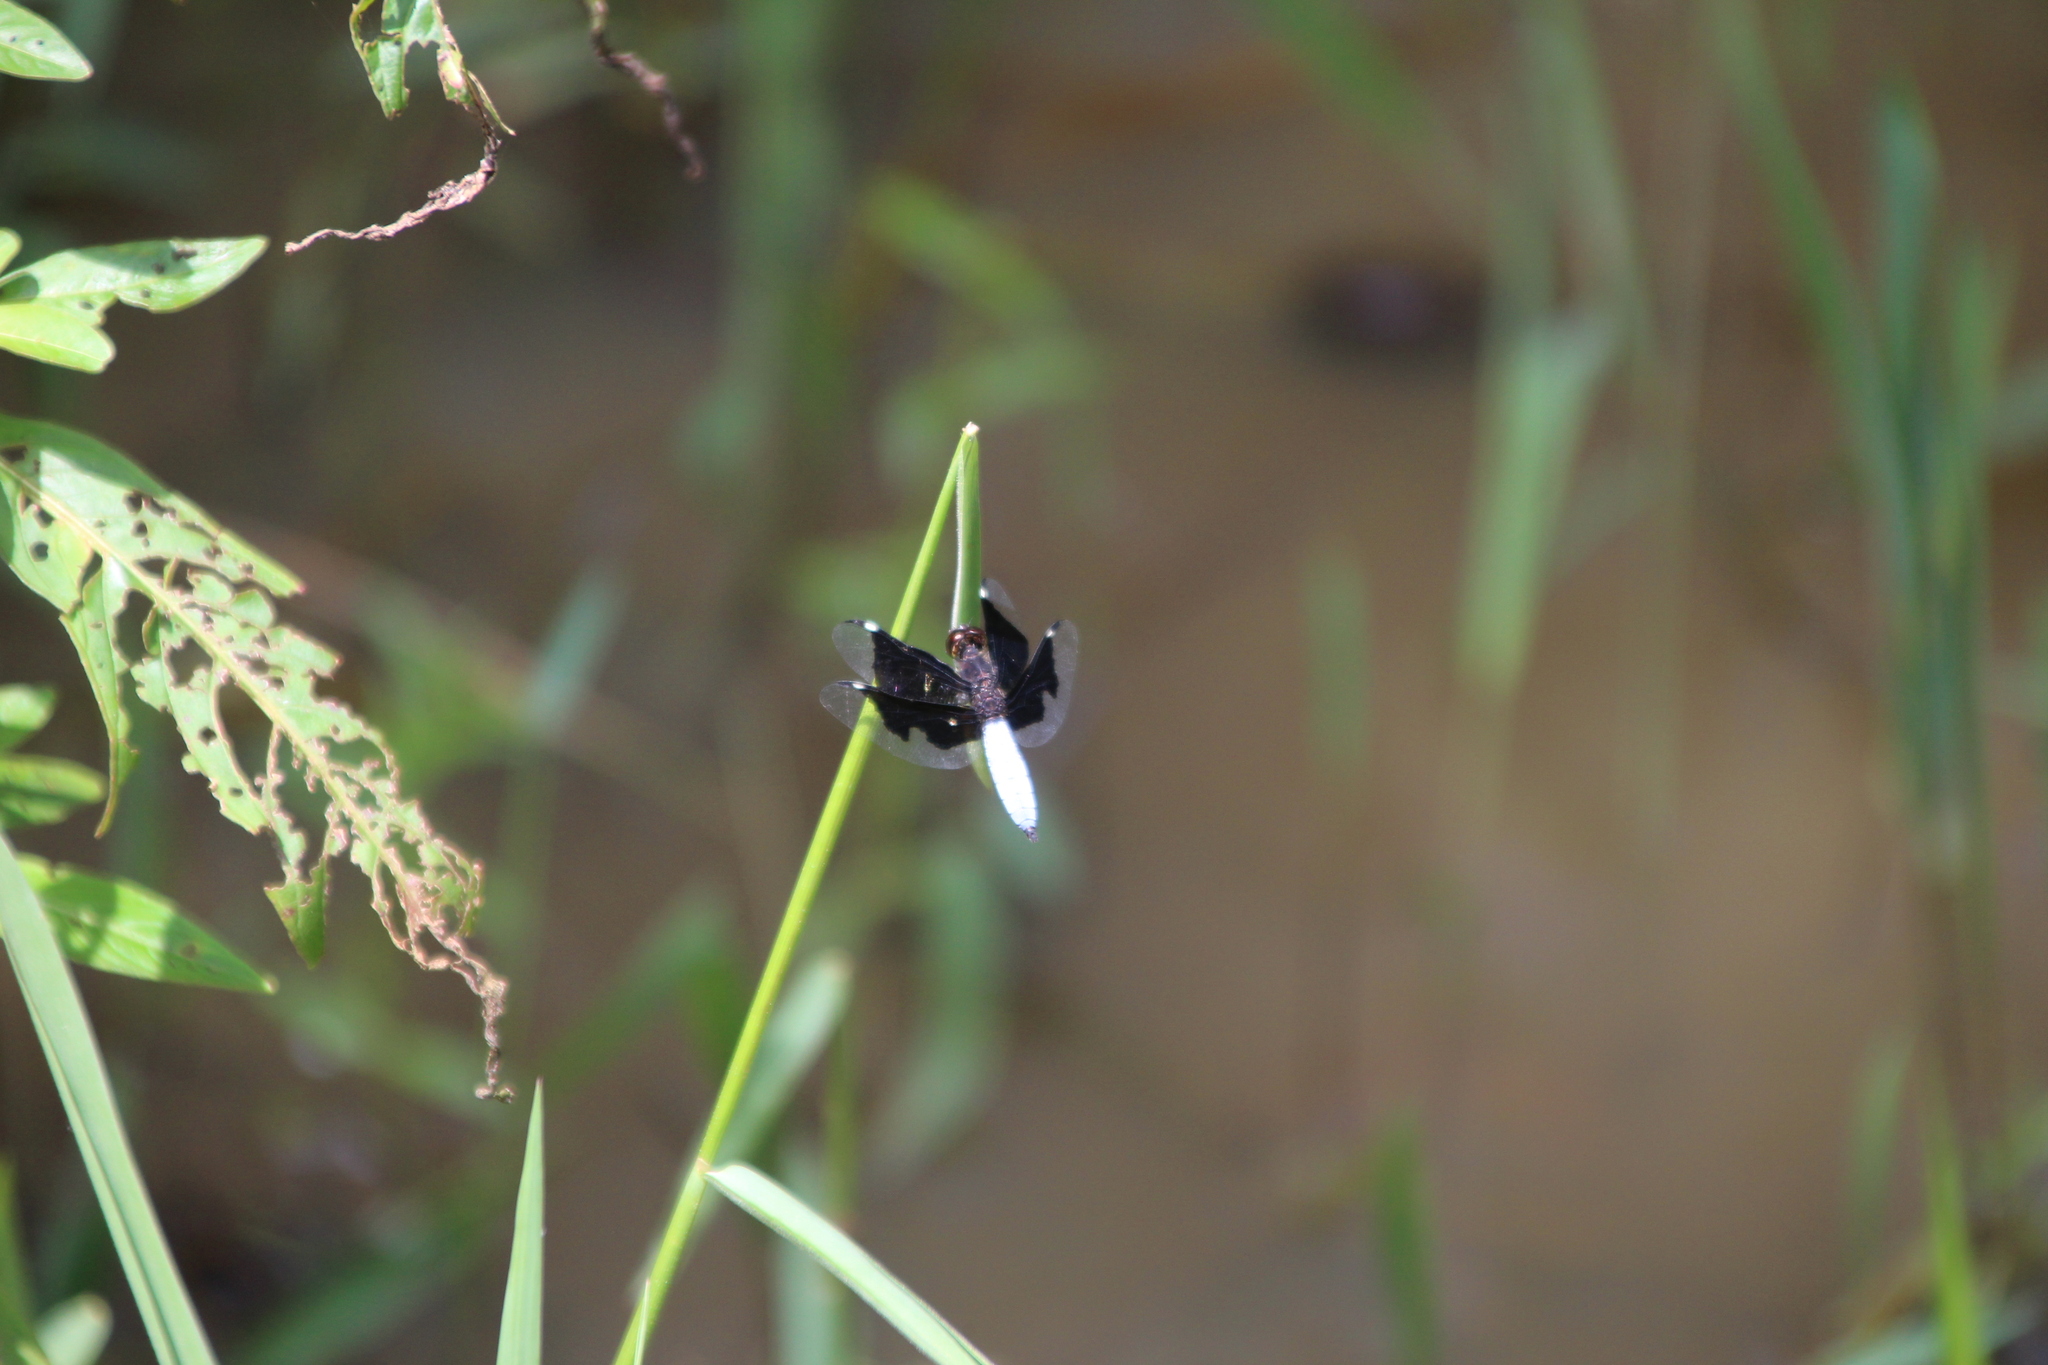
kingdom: Animalia
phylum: Arthropoda
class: Insecta
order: Odonata
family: Libellulidae
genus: Palpopleura
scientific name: Palpopleura lucia
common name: Lucia widow
